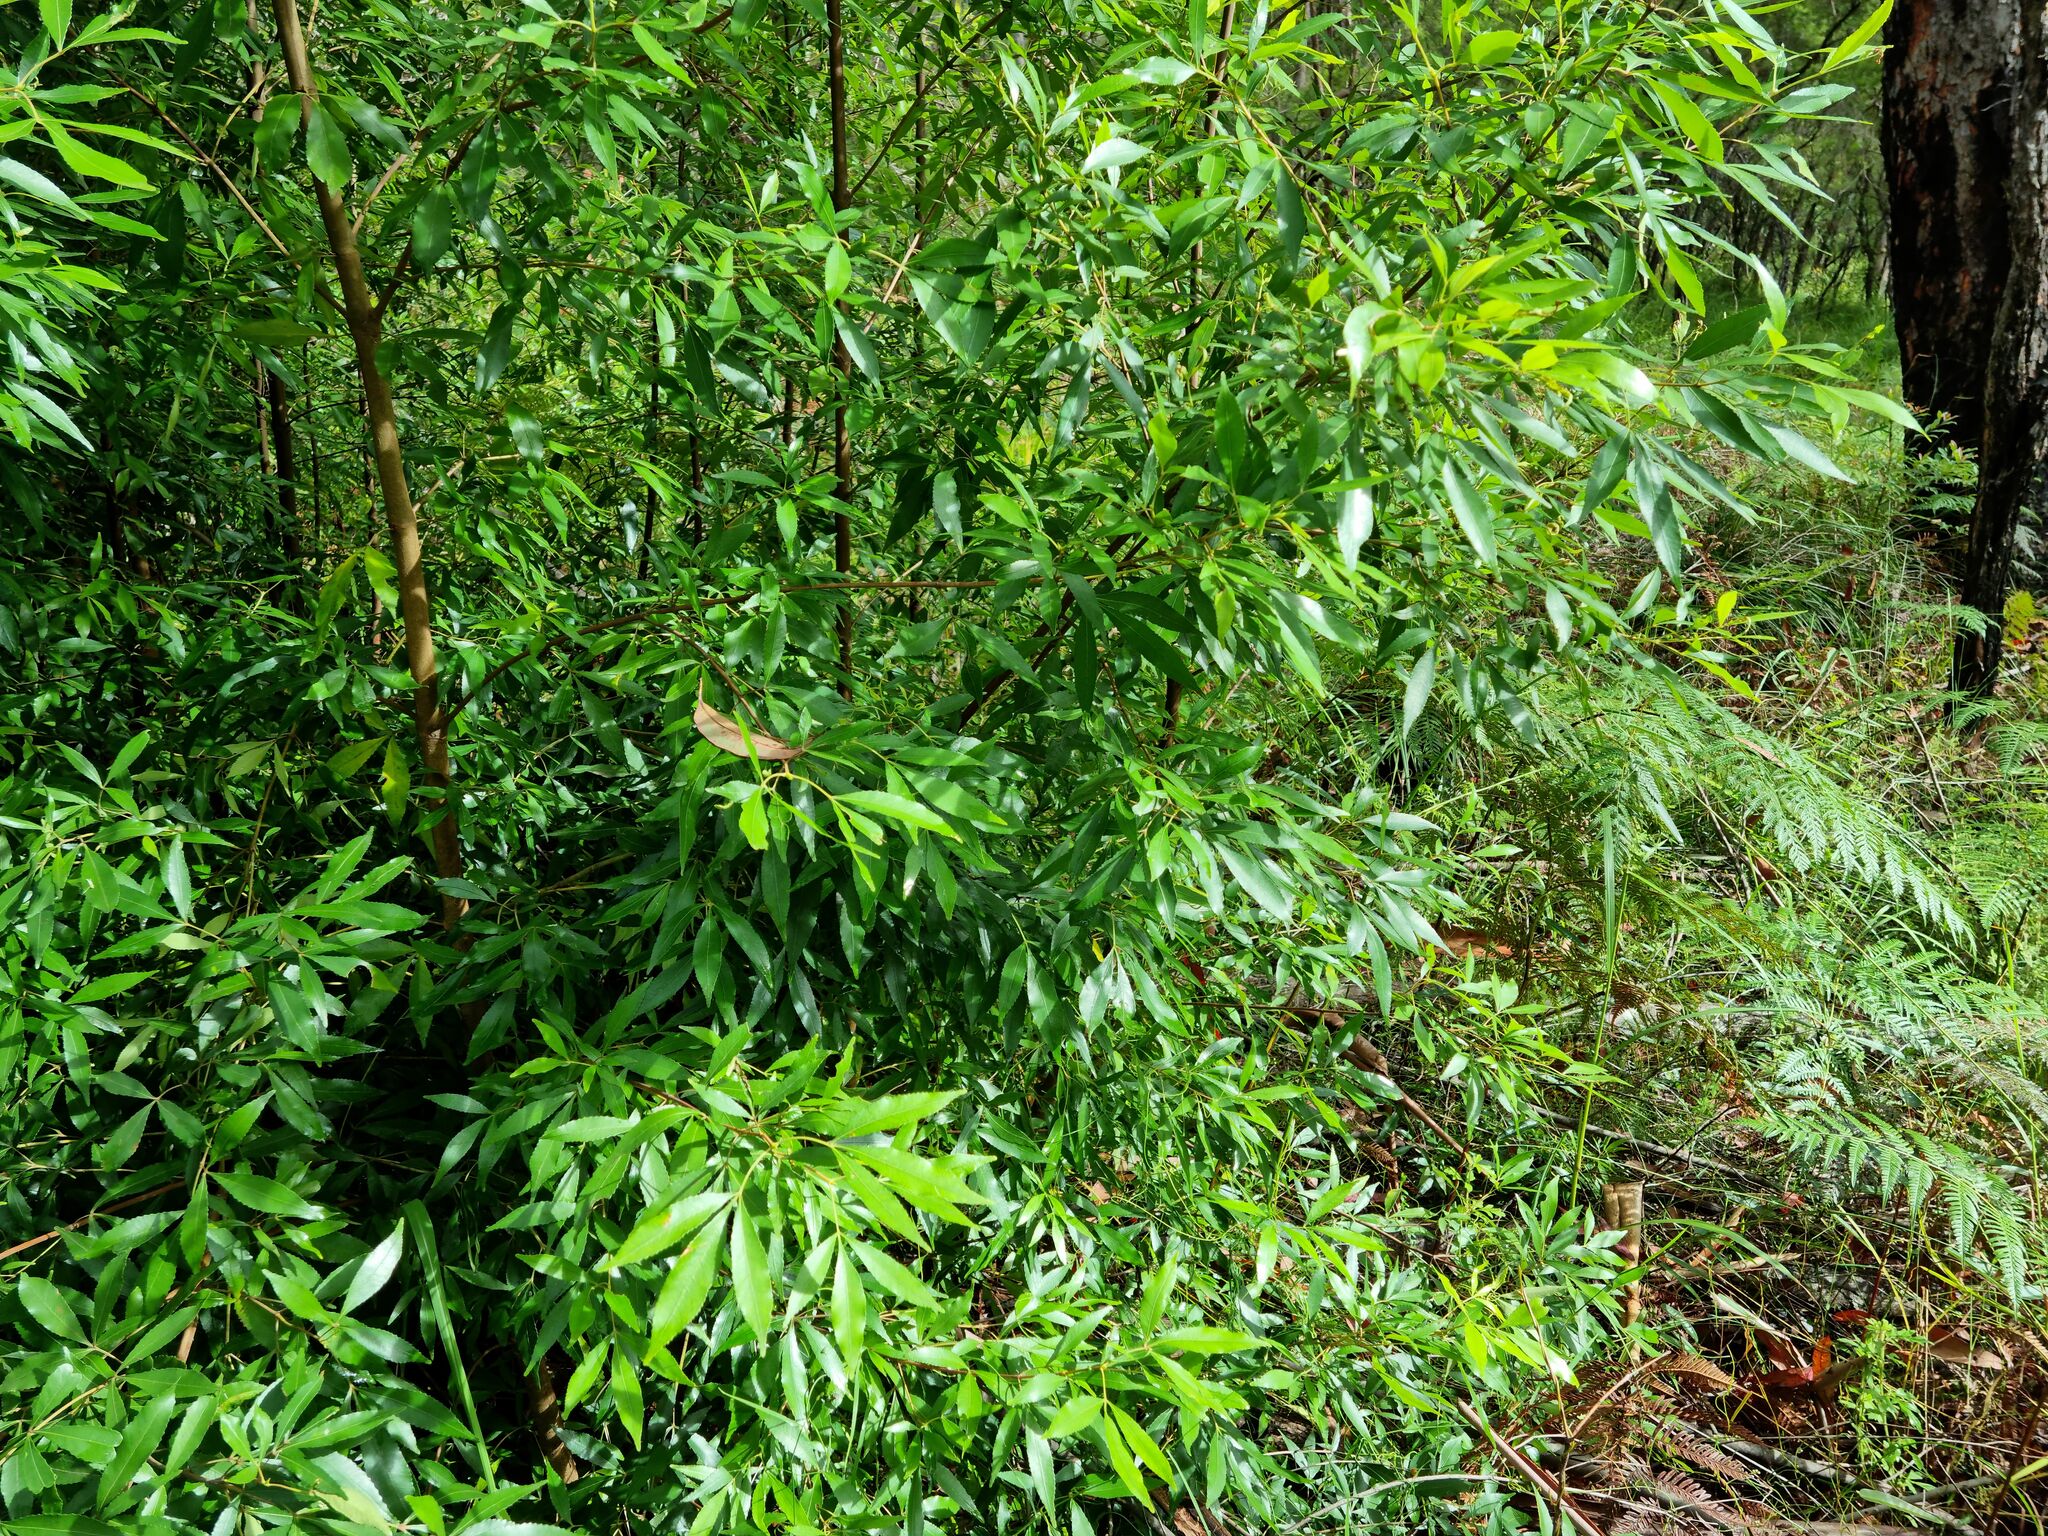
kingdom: Plantae
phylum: Tracheophyta
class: Magnoliopsida
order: Oxalidales
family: Cunoniaceae
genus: Ceratopetalum
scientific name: Ceratopetalum gummiferum
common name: Christmasbush
